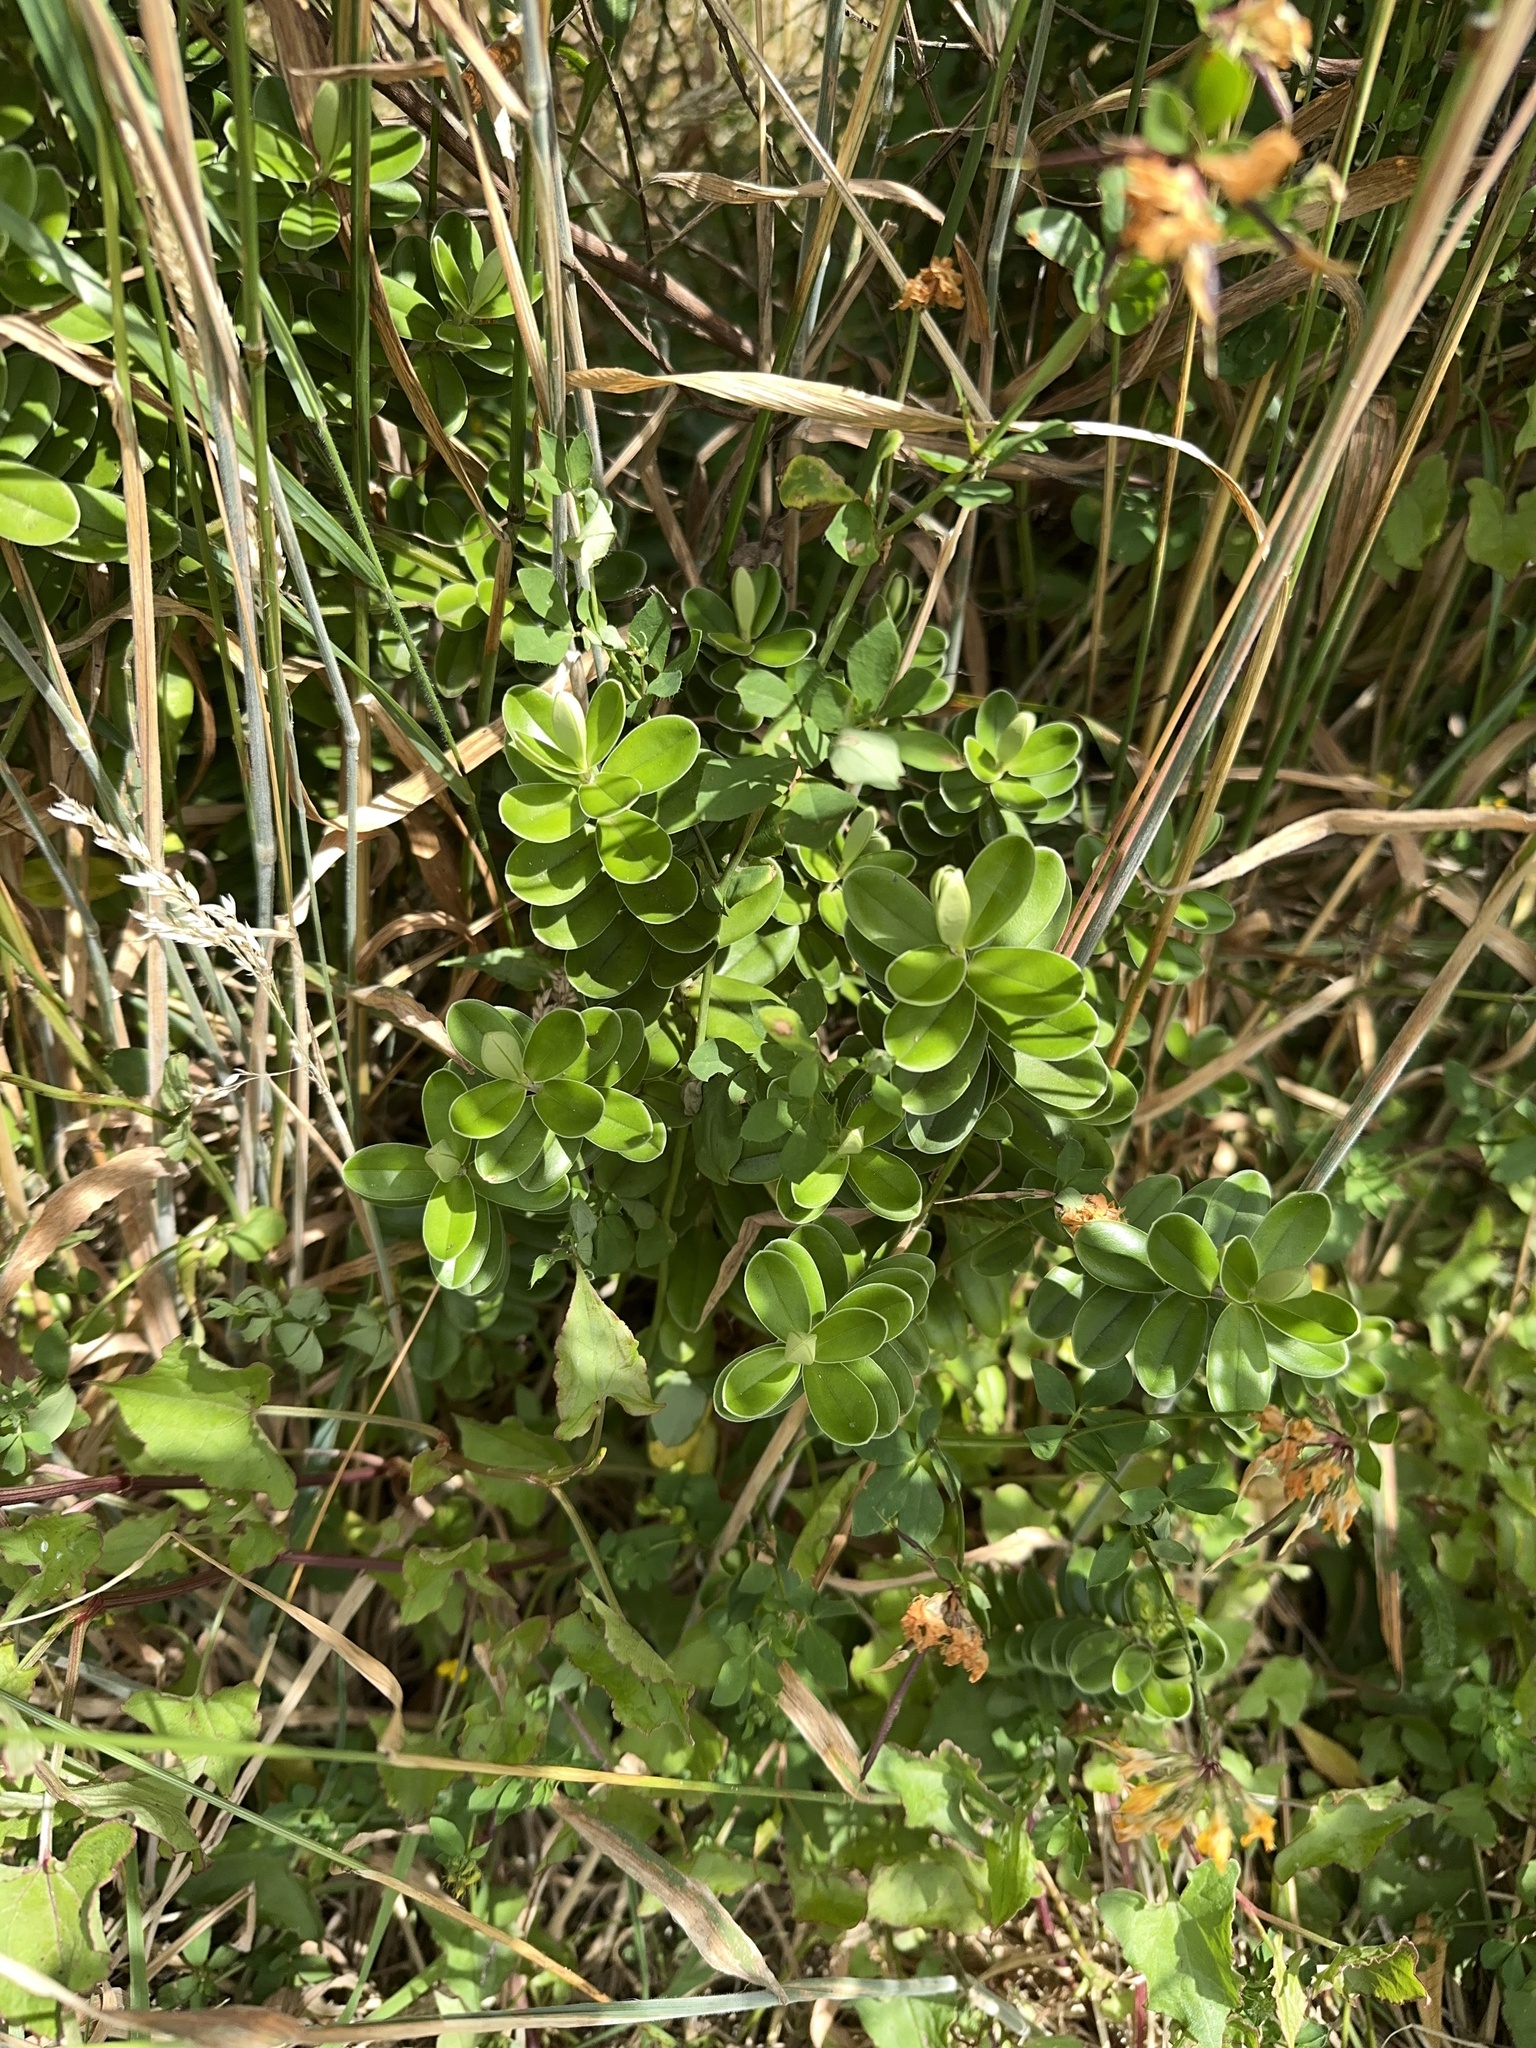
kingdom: Plantae
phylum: Tracheophyta
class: Magnoliopsida
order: Lamiales
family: Plantaginaceae
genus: Veronica
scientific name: Veronica elliptica
